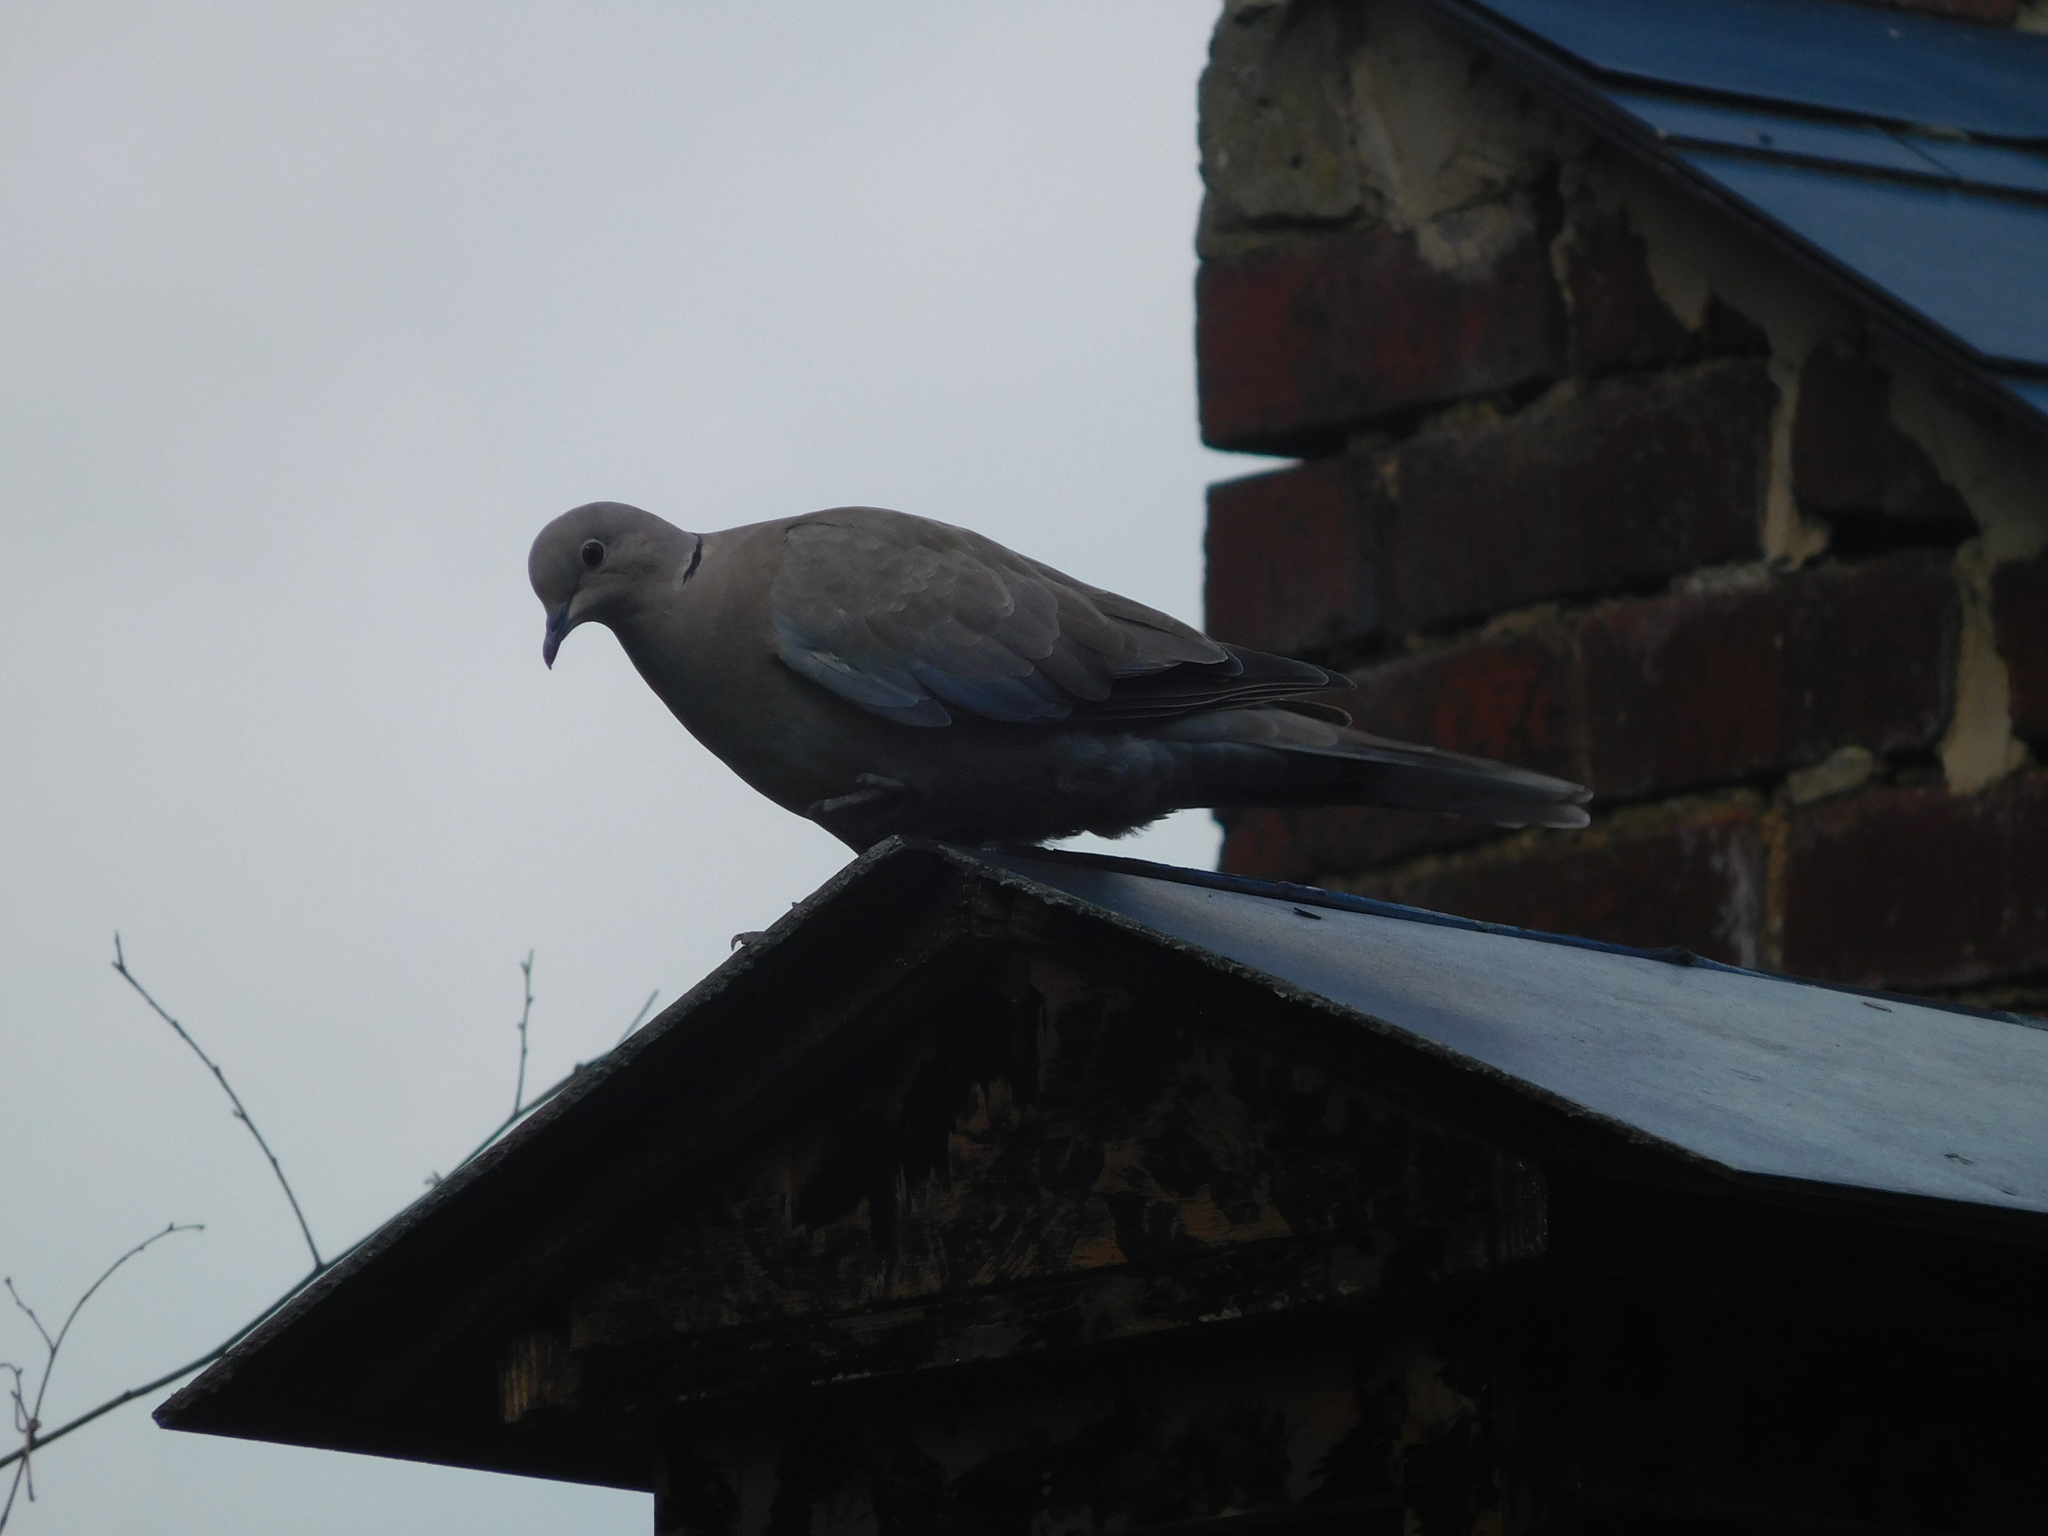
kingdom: Animalia
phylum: Chordata
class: Aves
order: Columbiformes
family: Columbidae
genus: Streptopelia
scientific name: Streptopelia decaocto
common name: Eurasian collared dove
